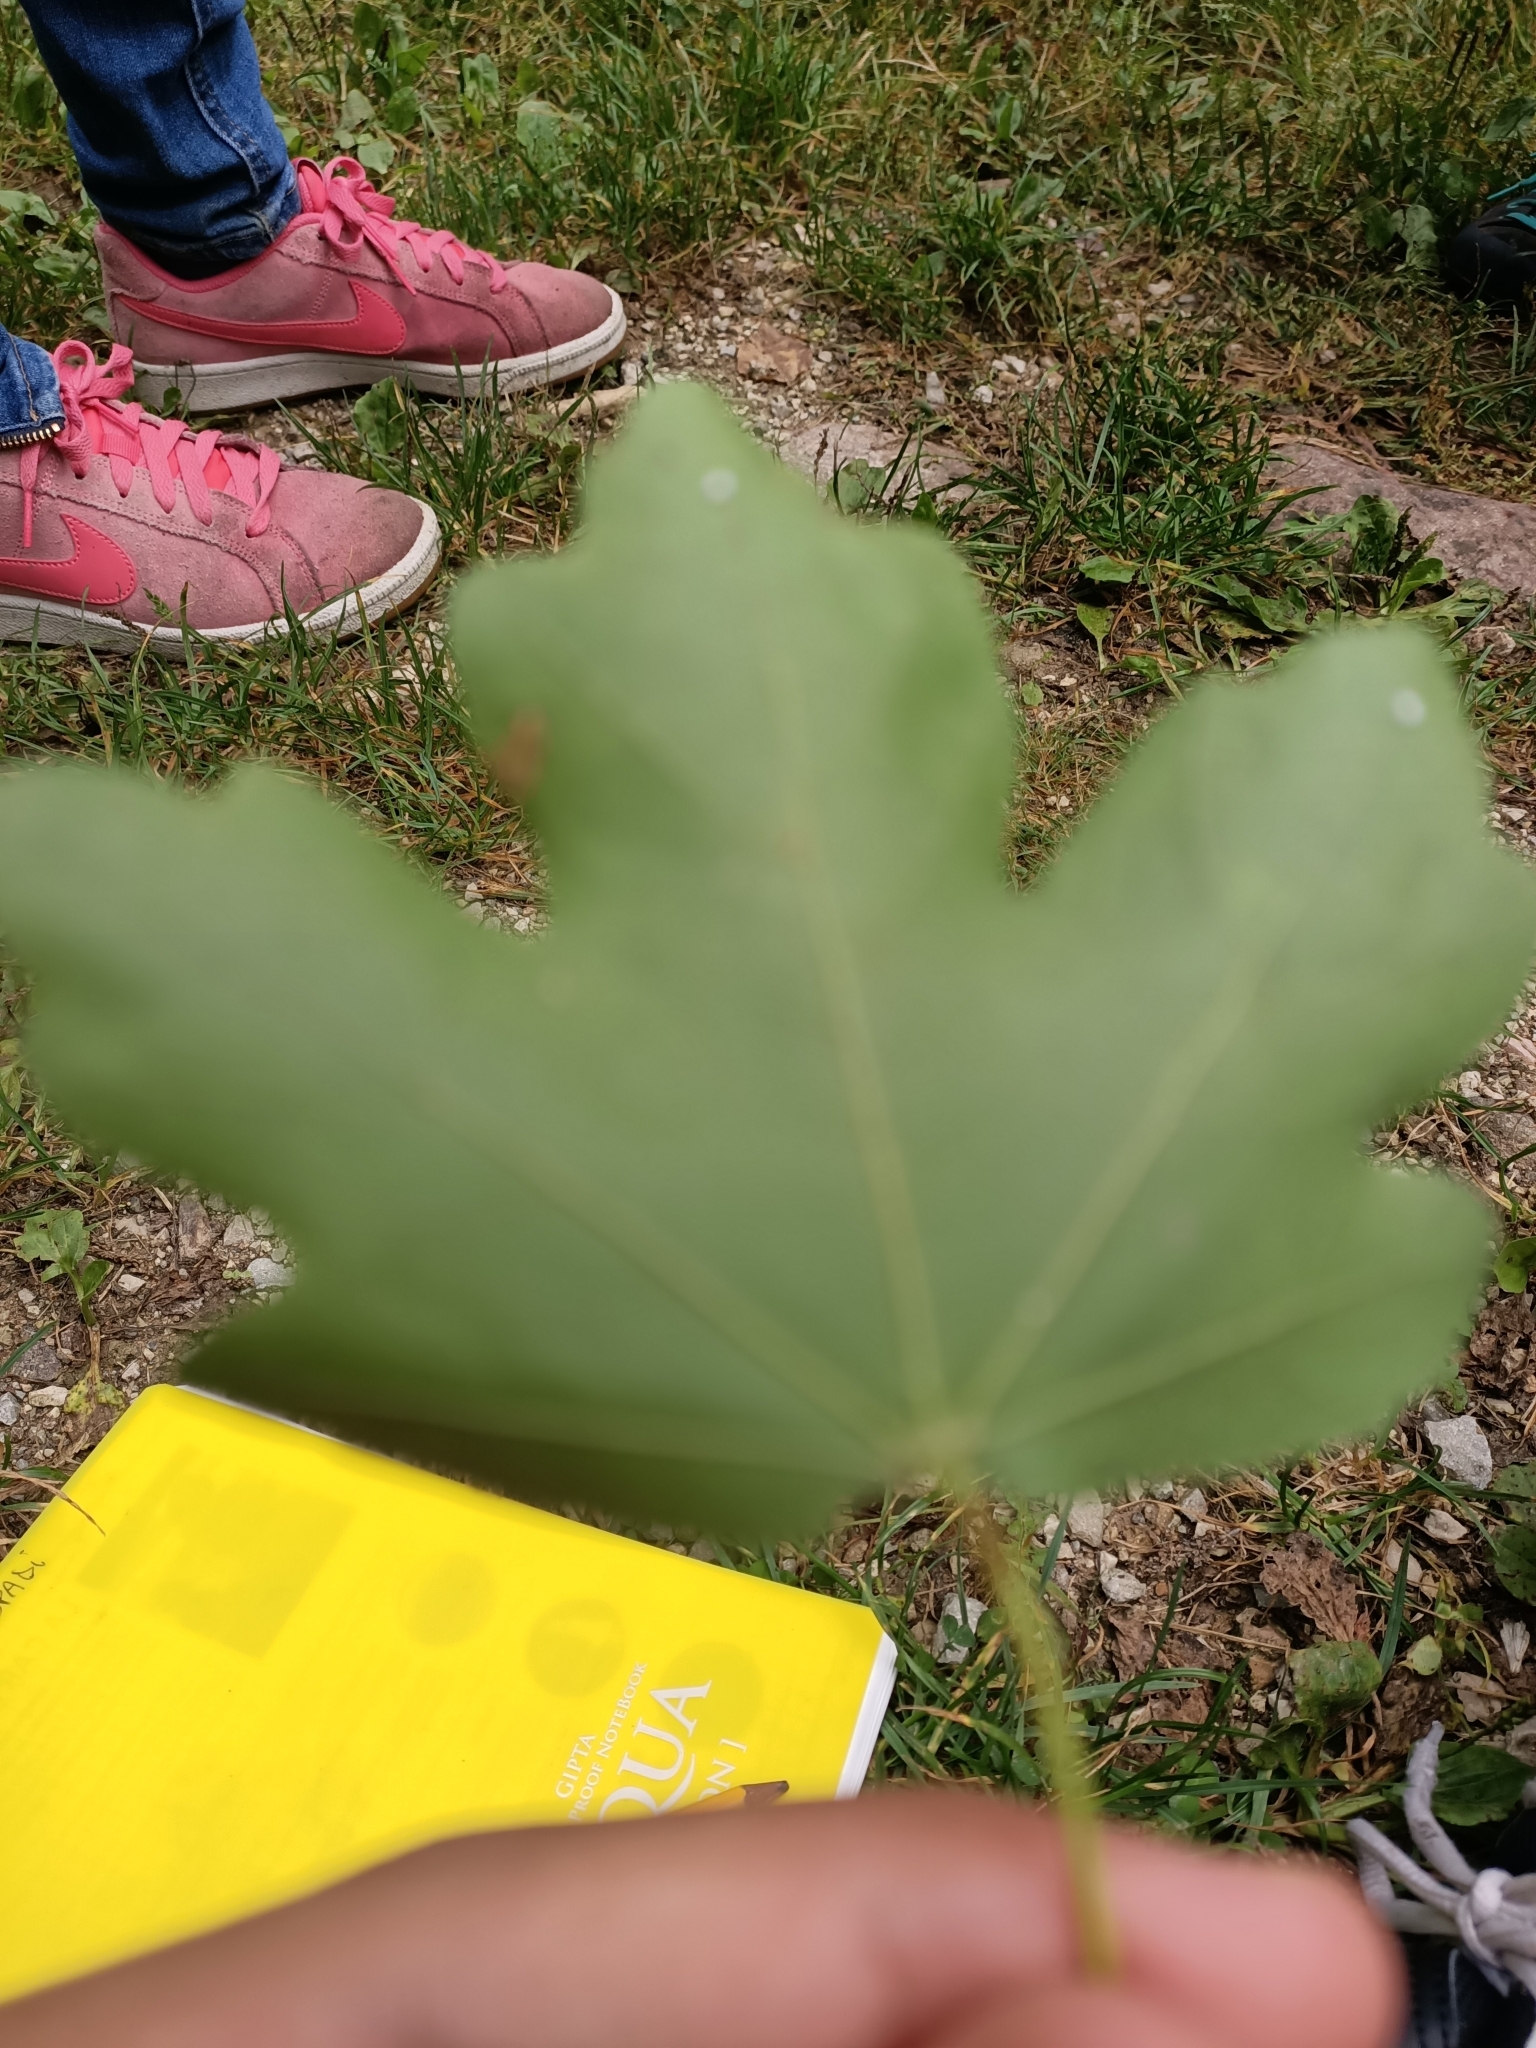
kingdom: Plantae
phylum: Tracheophyta
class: Magnoliopsida
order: Sapindales
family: Sapindaceae
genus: Acer
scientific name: Acer campestre
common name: Field maple
